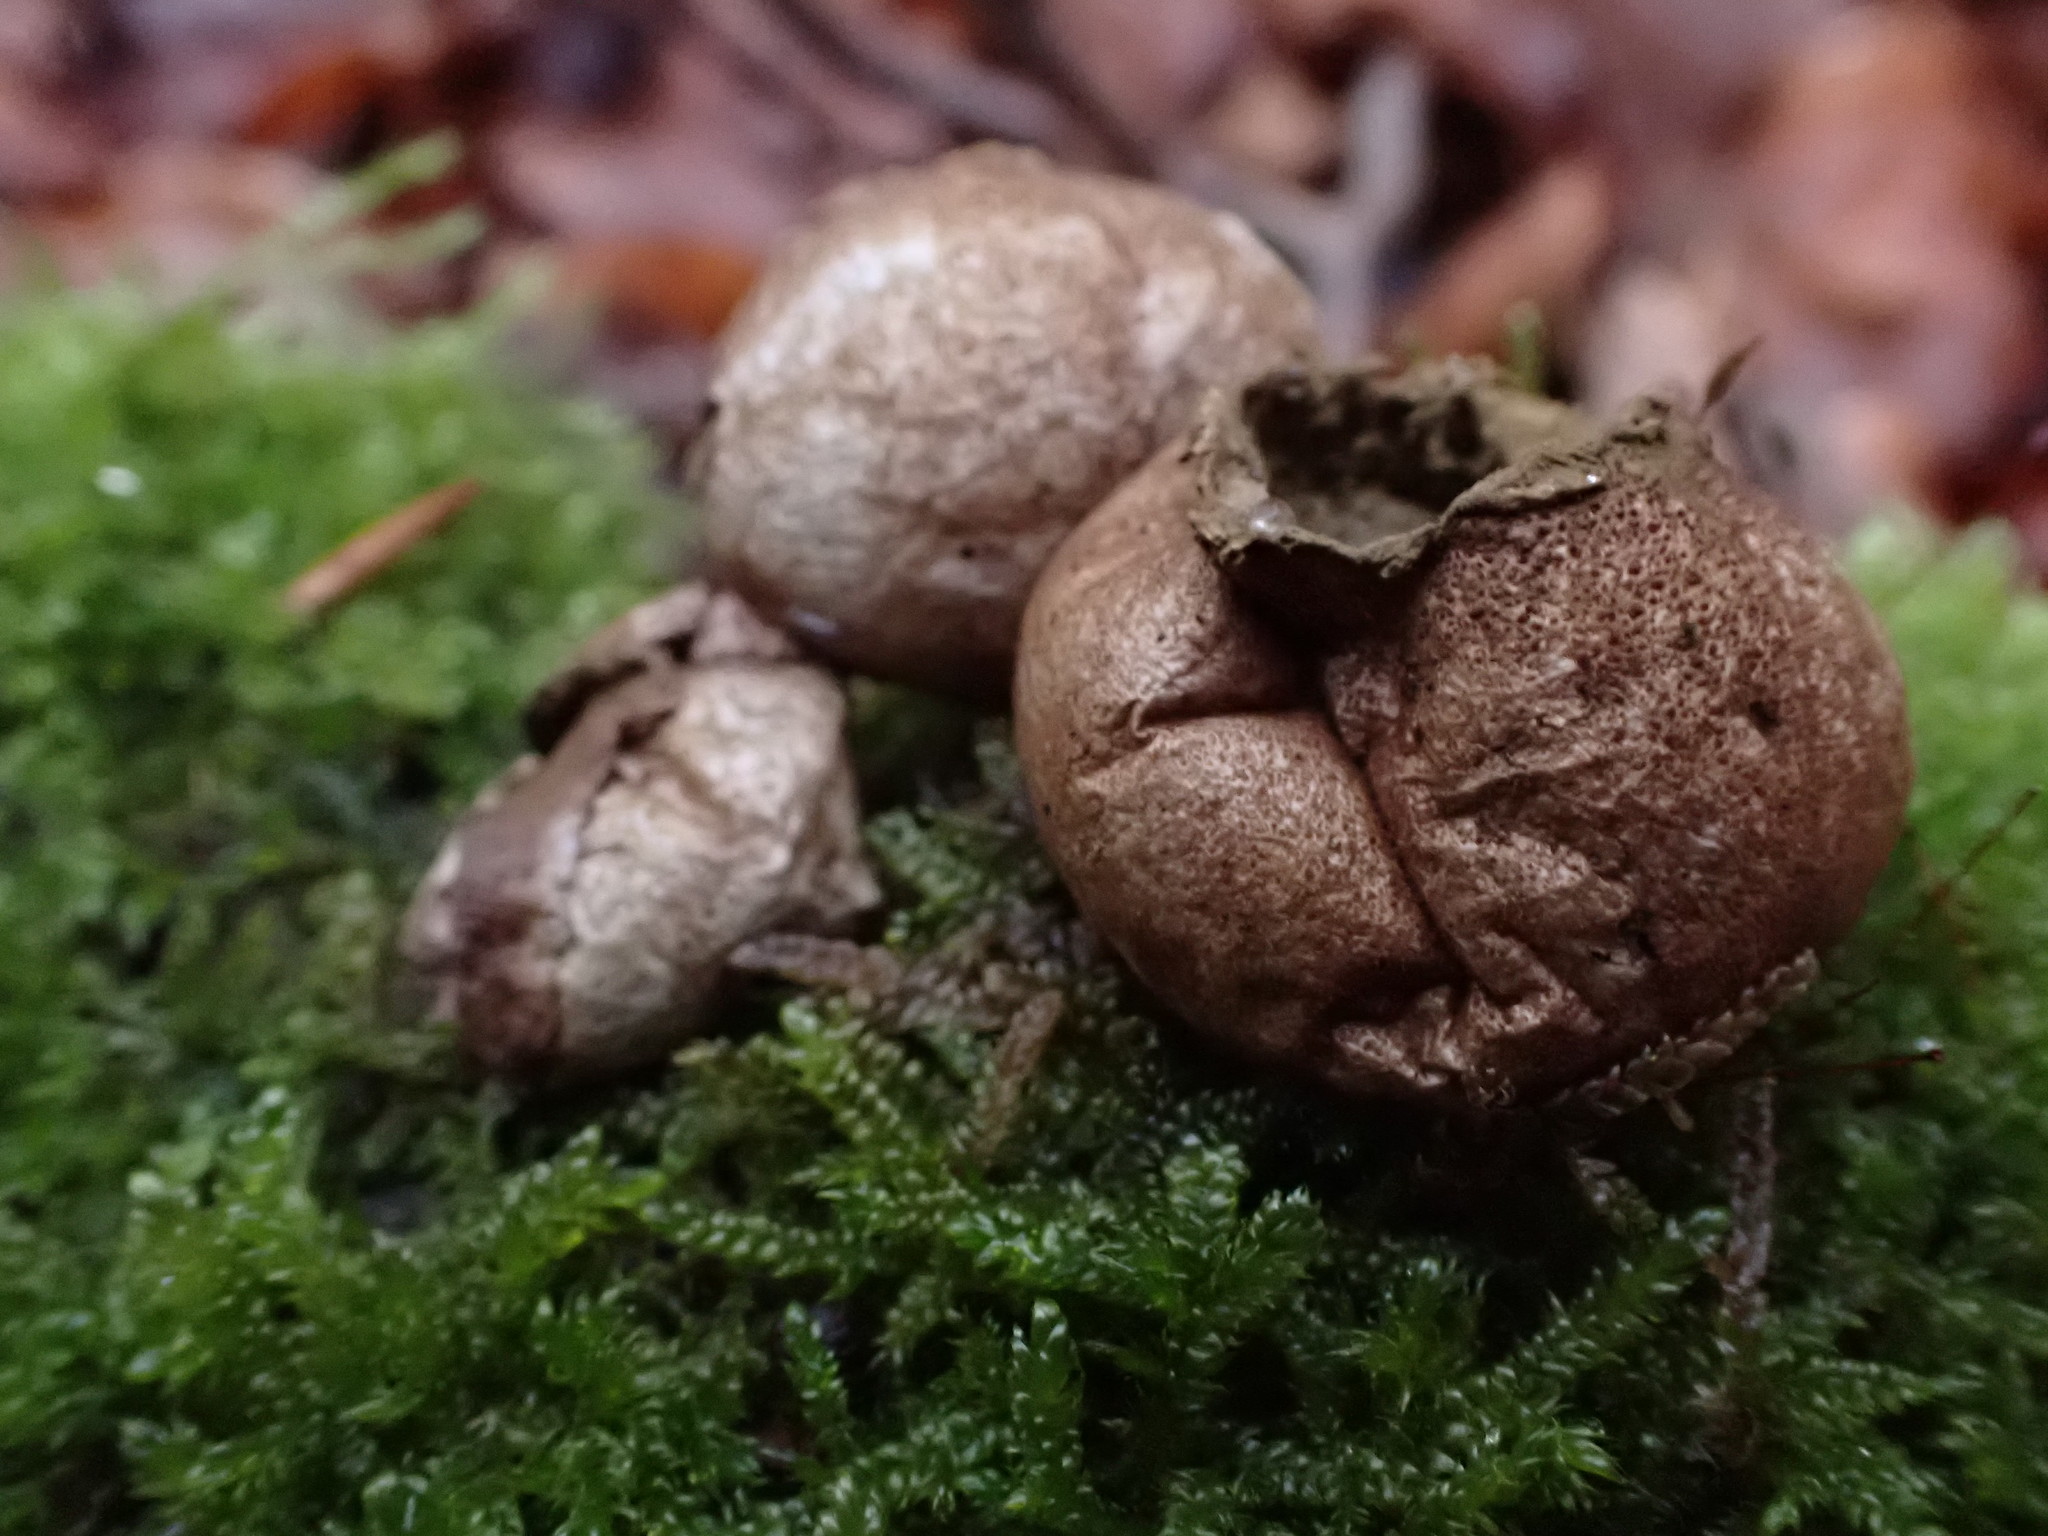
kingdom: Fungi
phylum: Basidiomycota
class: Agaricomycetes
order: Agaricales
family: Lycoperdaceae
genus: Apioperdon
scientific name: Apioperdon pyriforme
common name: Pear-shaped puffball
